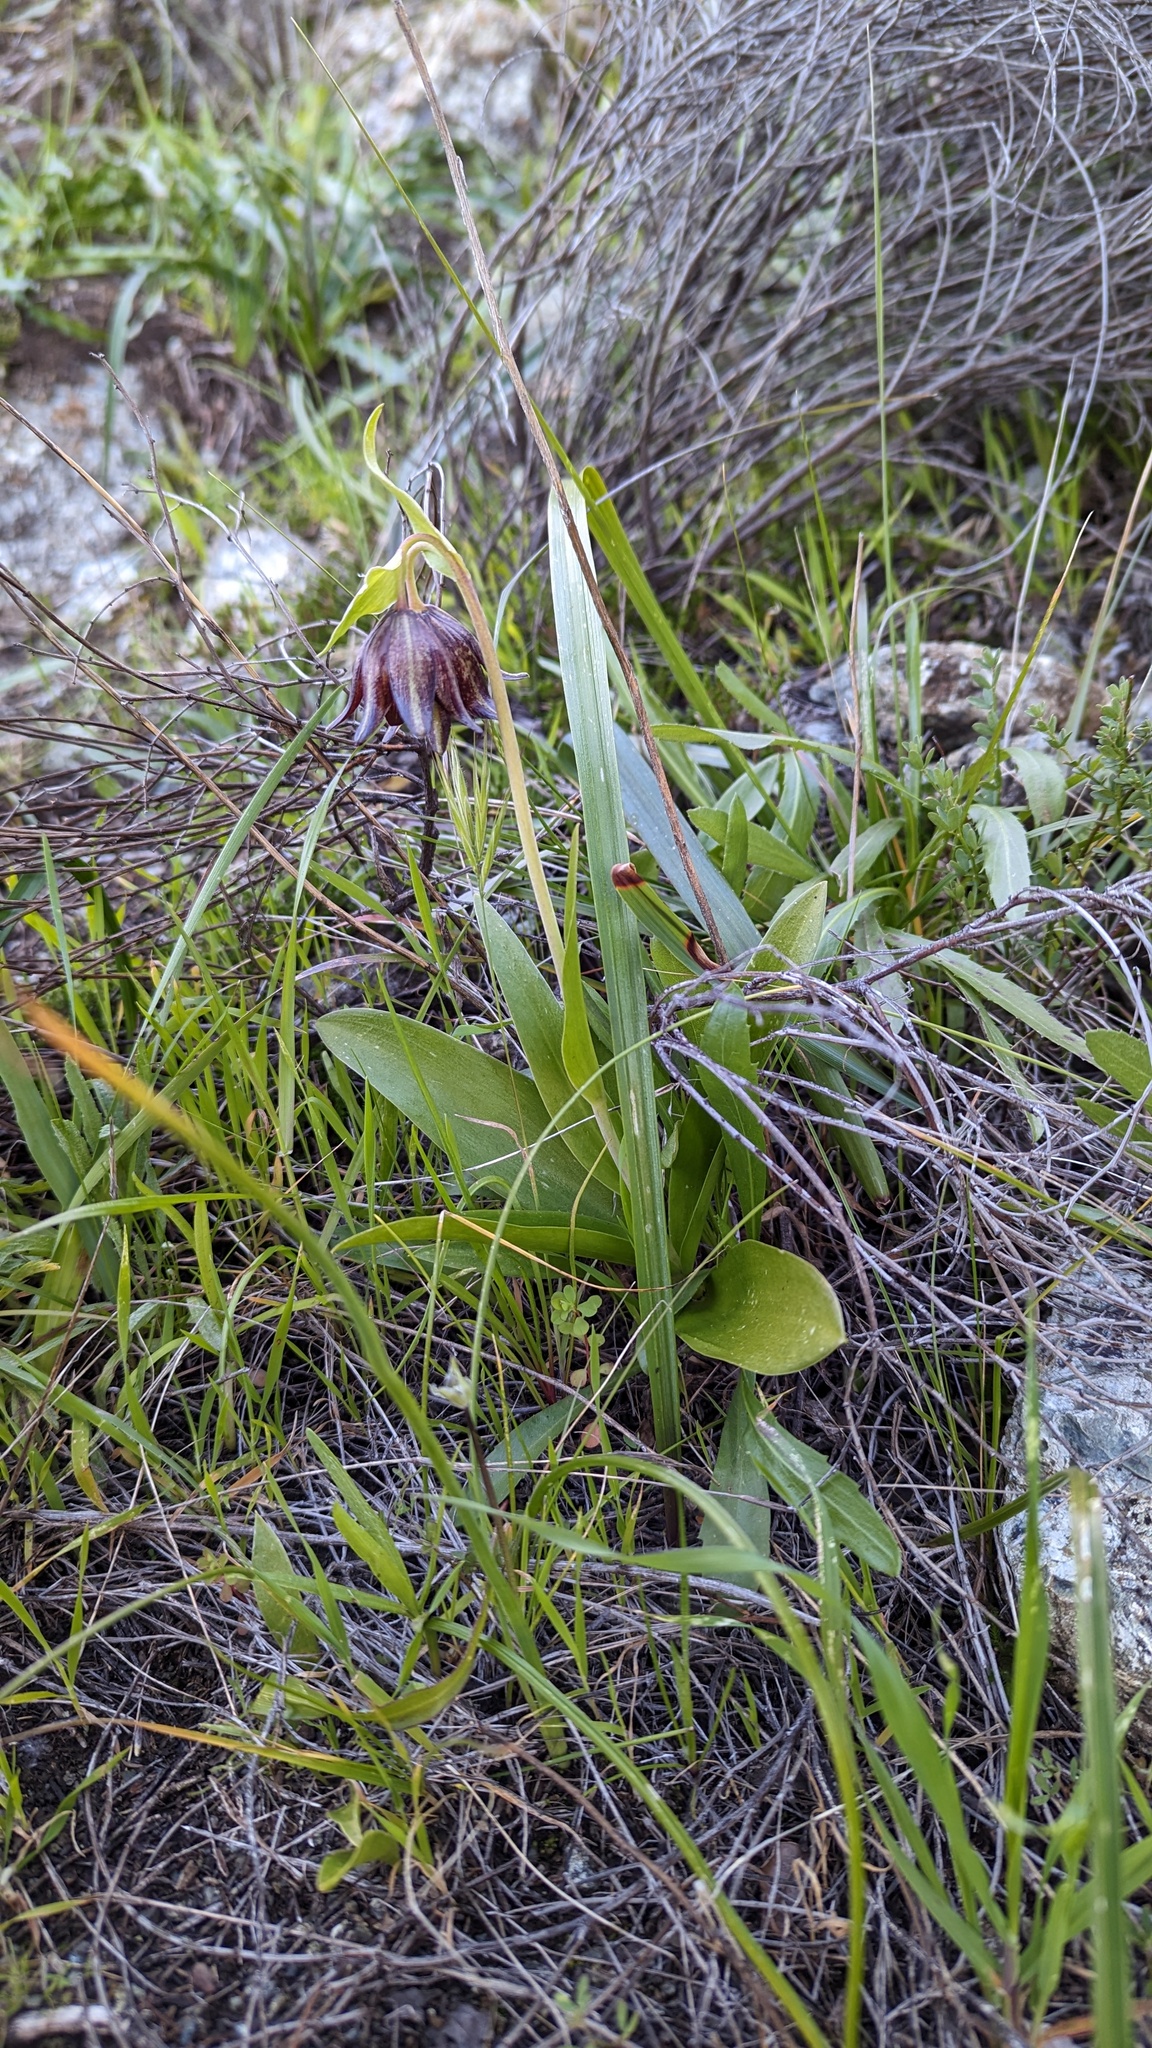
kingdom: Plantae
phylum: Tracheophyta
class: Liliopsida
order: Liliales
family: Liliaceae
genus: Fritillaria
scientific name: Fritillaria biflora
